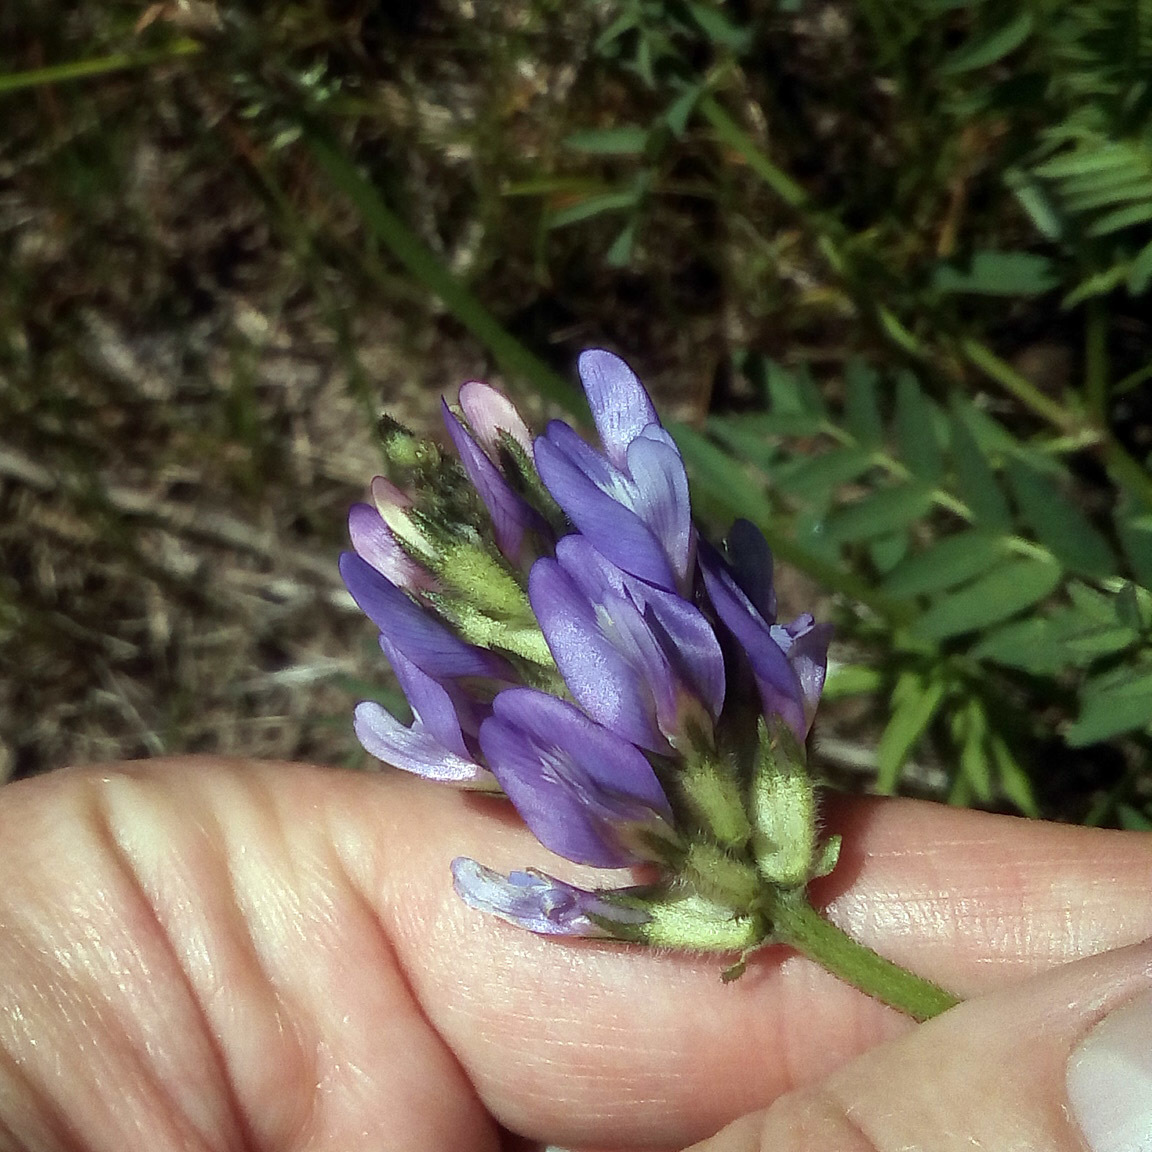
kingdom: Plantae
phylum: Tracheophyta
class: Magnoliopsida
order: Fabales
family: Fabaceae
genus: Astragalus
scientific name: Astragalus danicus
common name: Purple milk-vetch
